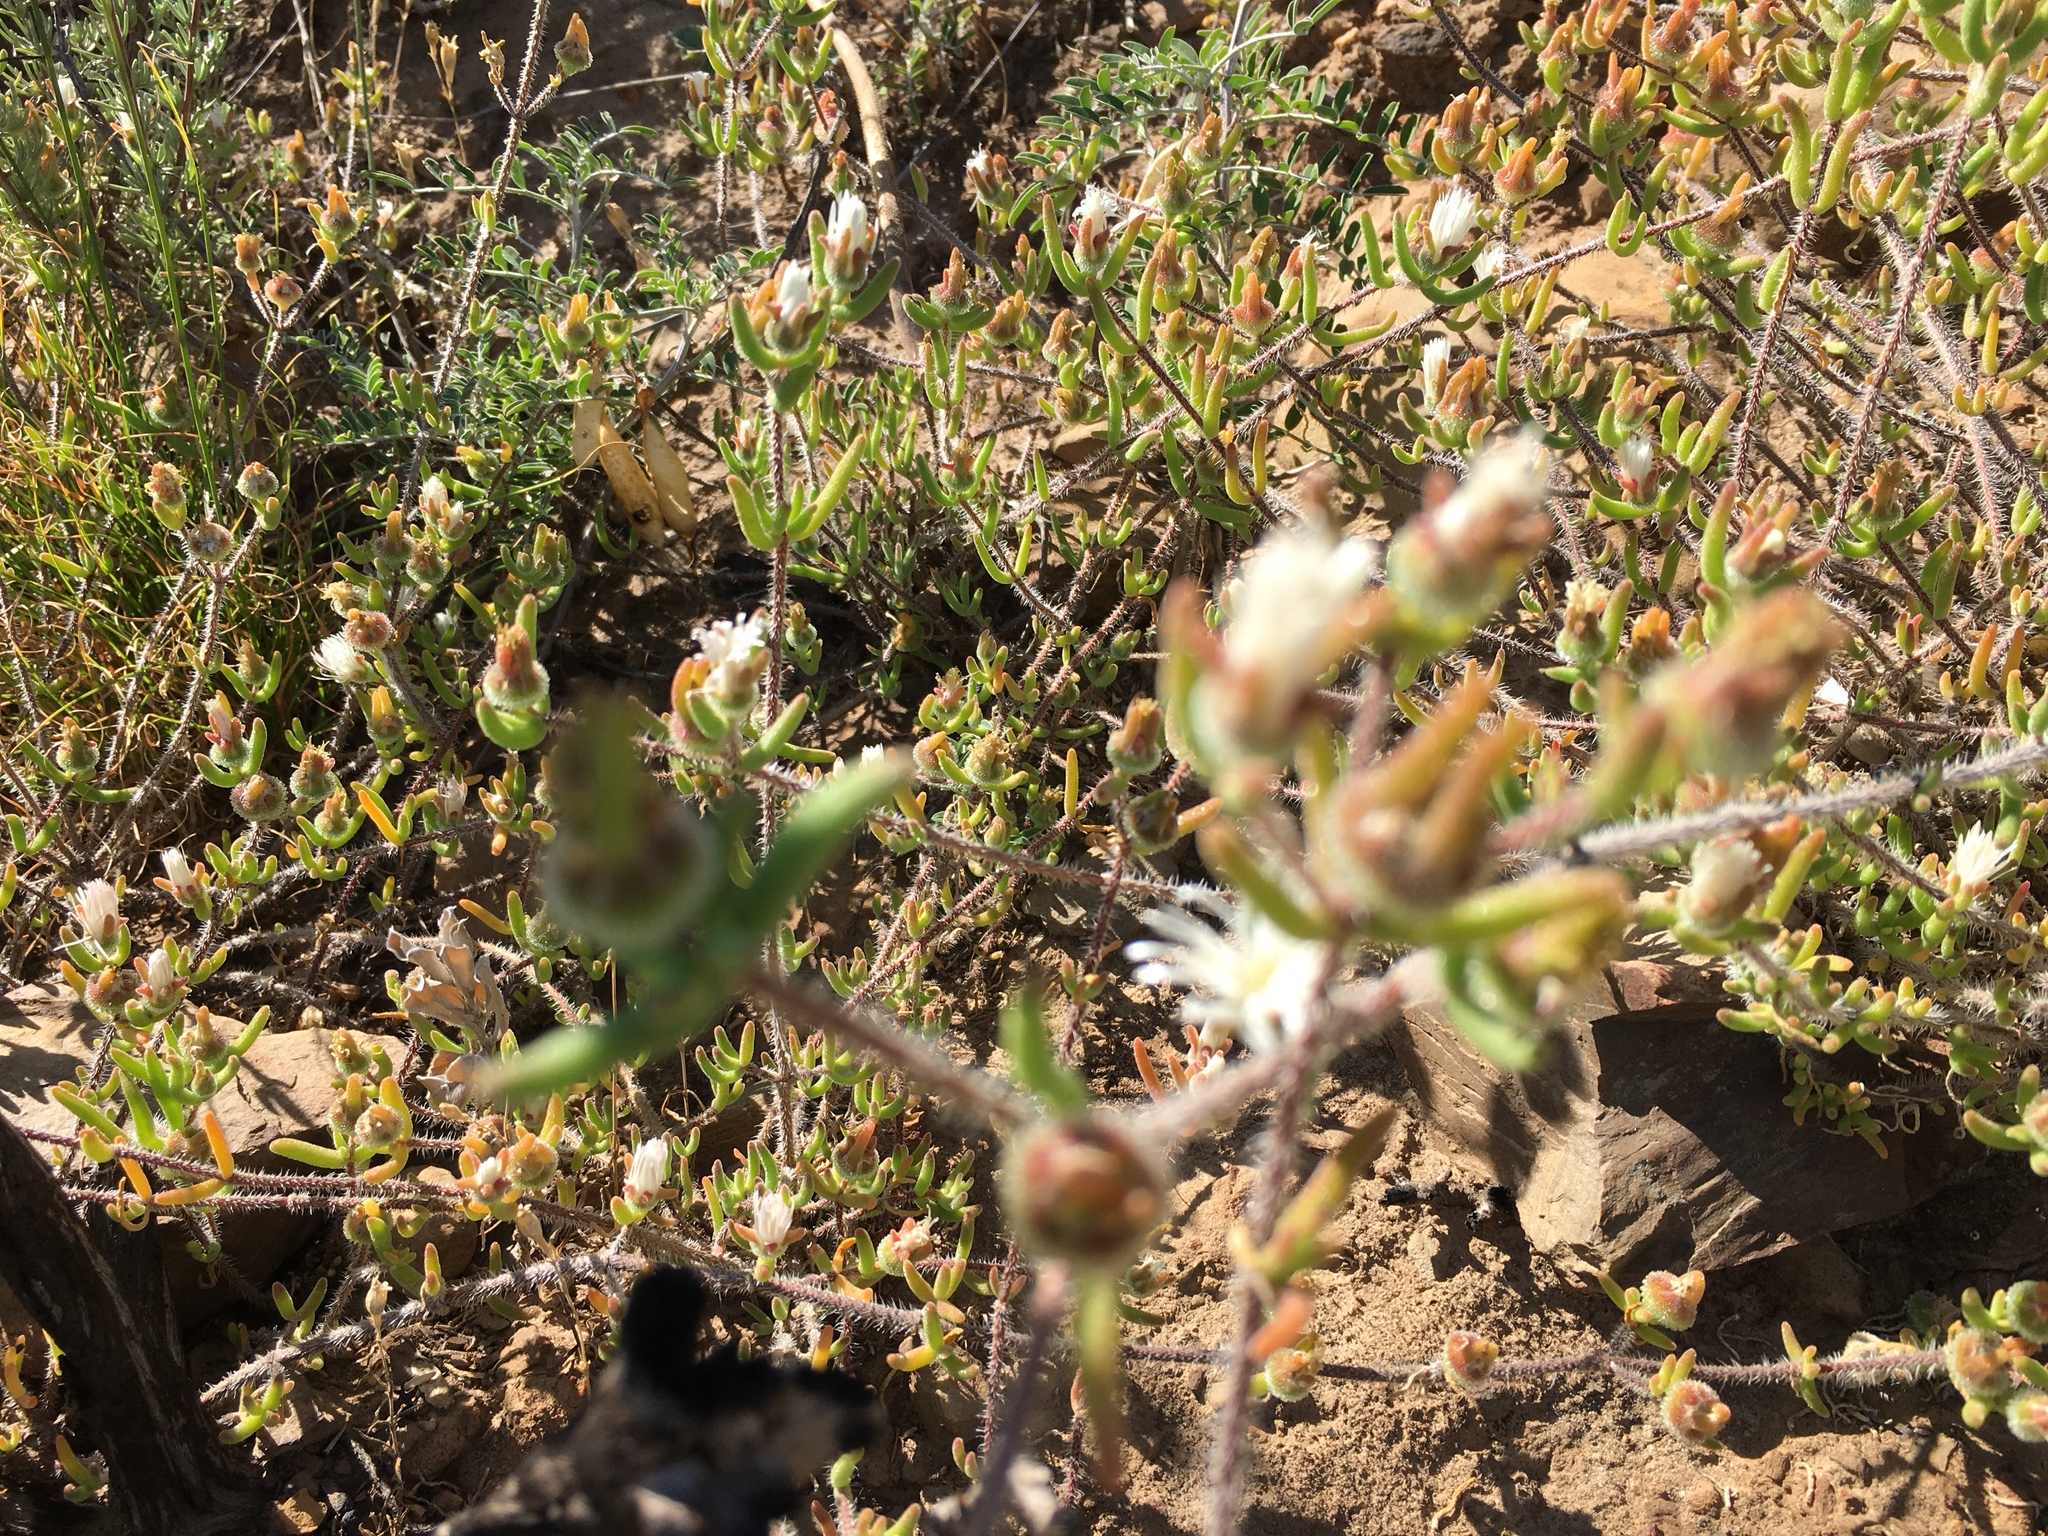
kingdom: Plantae
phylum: Tracheophyta
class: Magnoliopsida
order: Caryophyllales
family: Aizoaceae
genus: Drosanthemum
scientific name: Drosanthemum calycinum
